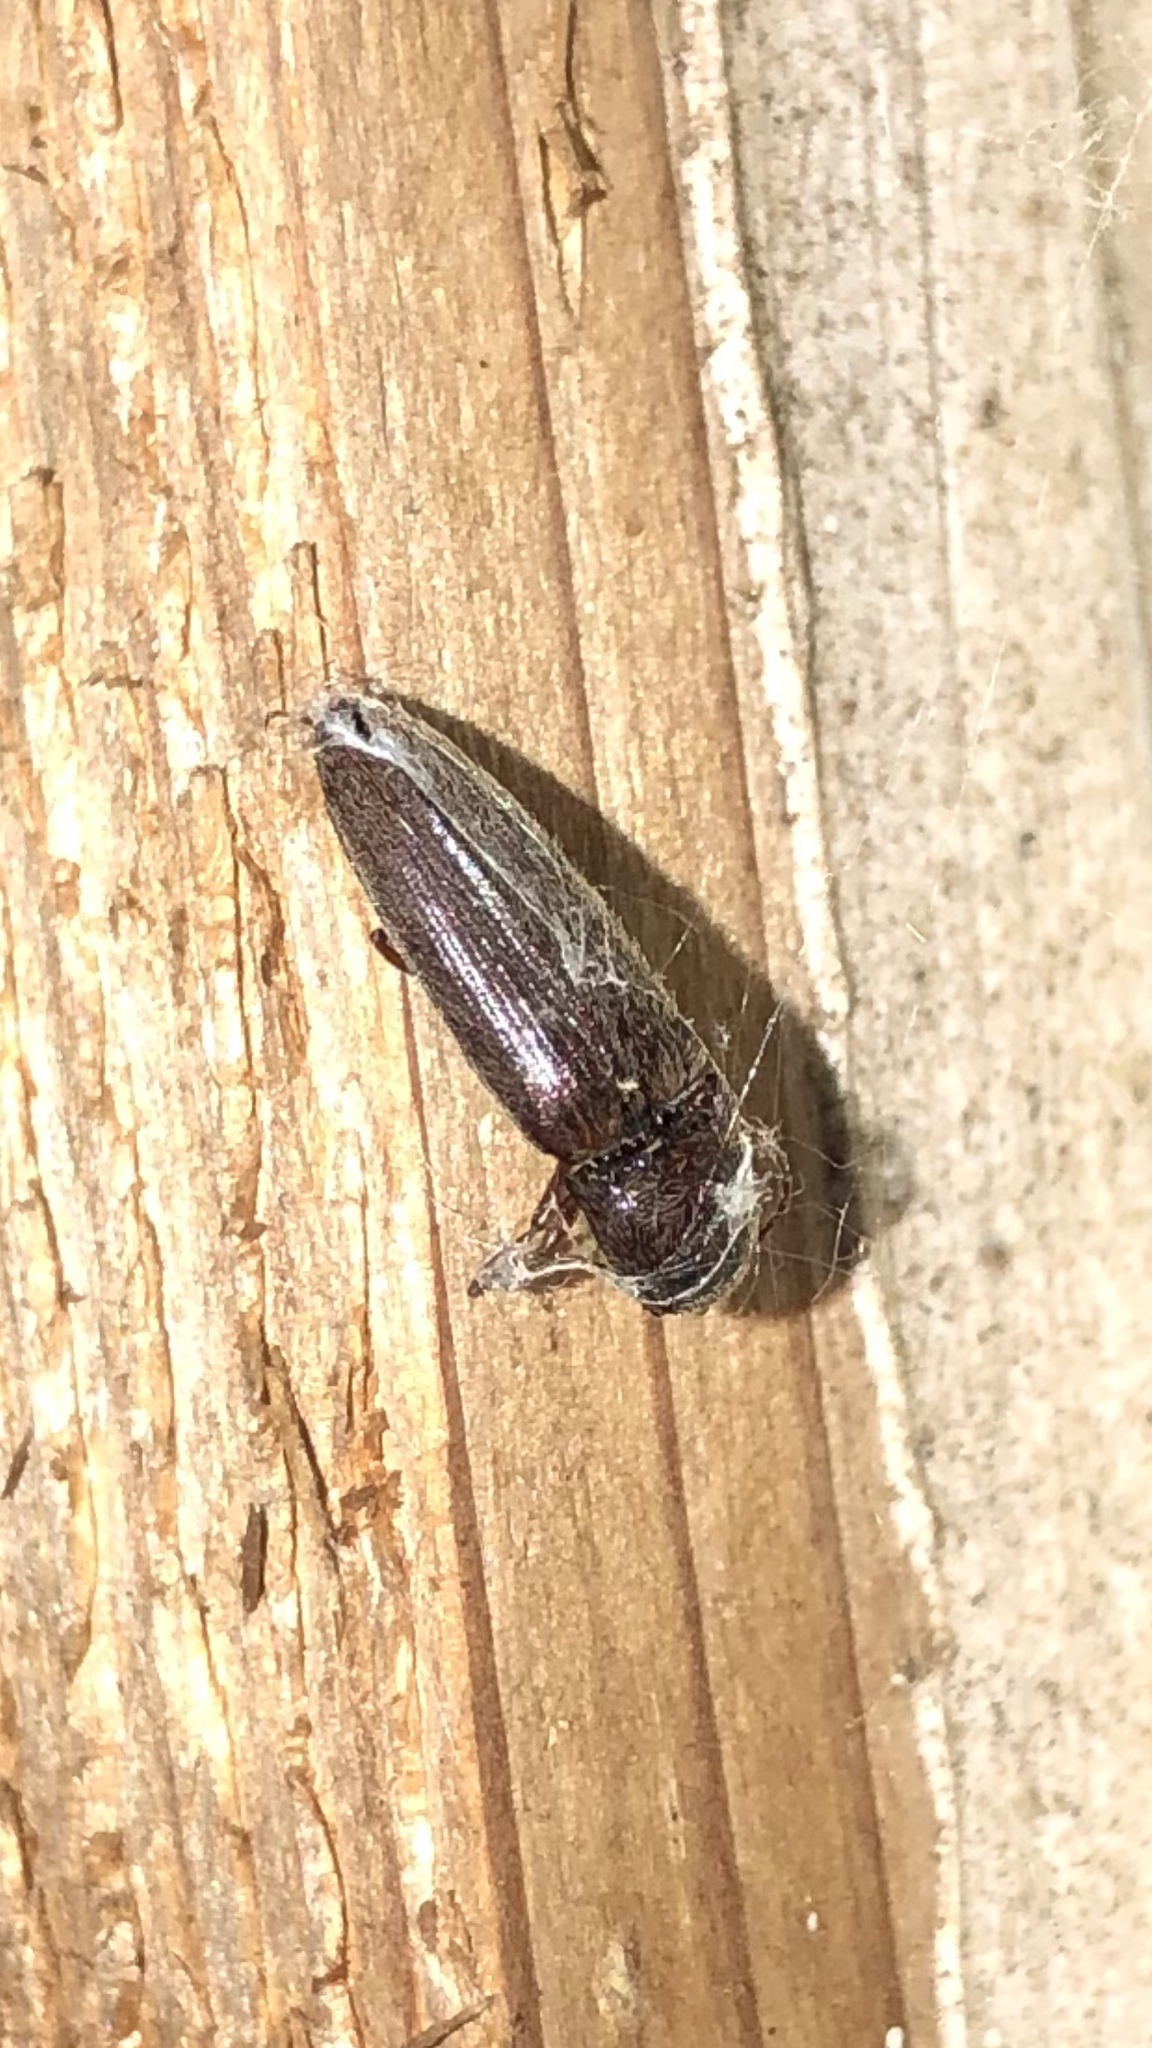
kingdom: Animalia
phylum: Arthropoda
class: Insecta
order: Coleoptera
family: Elateridae
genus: Melanotus
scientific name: Melanotus
